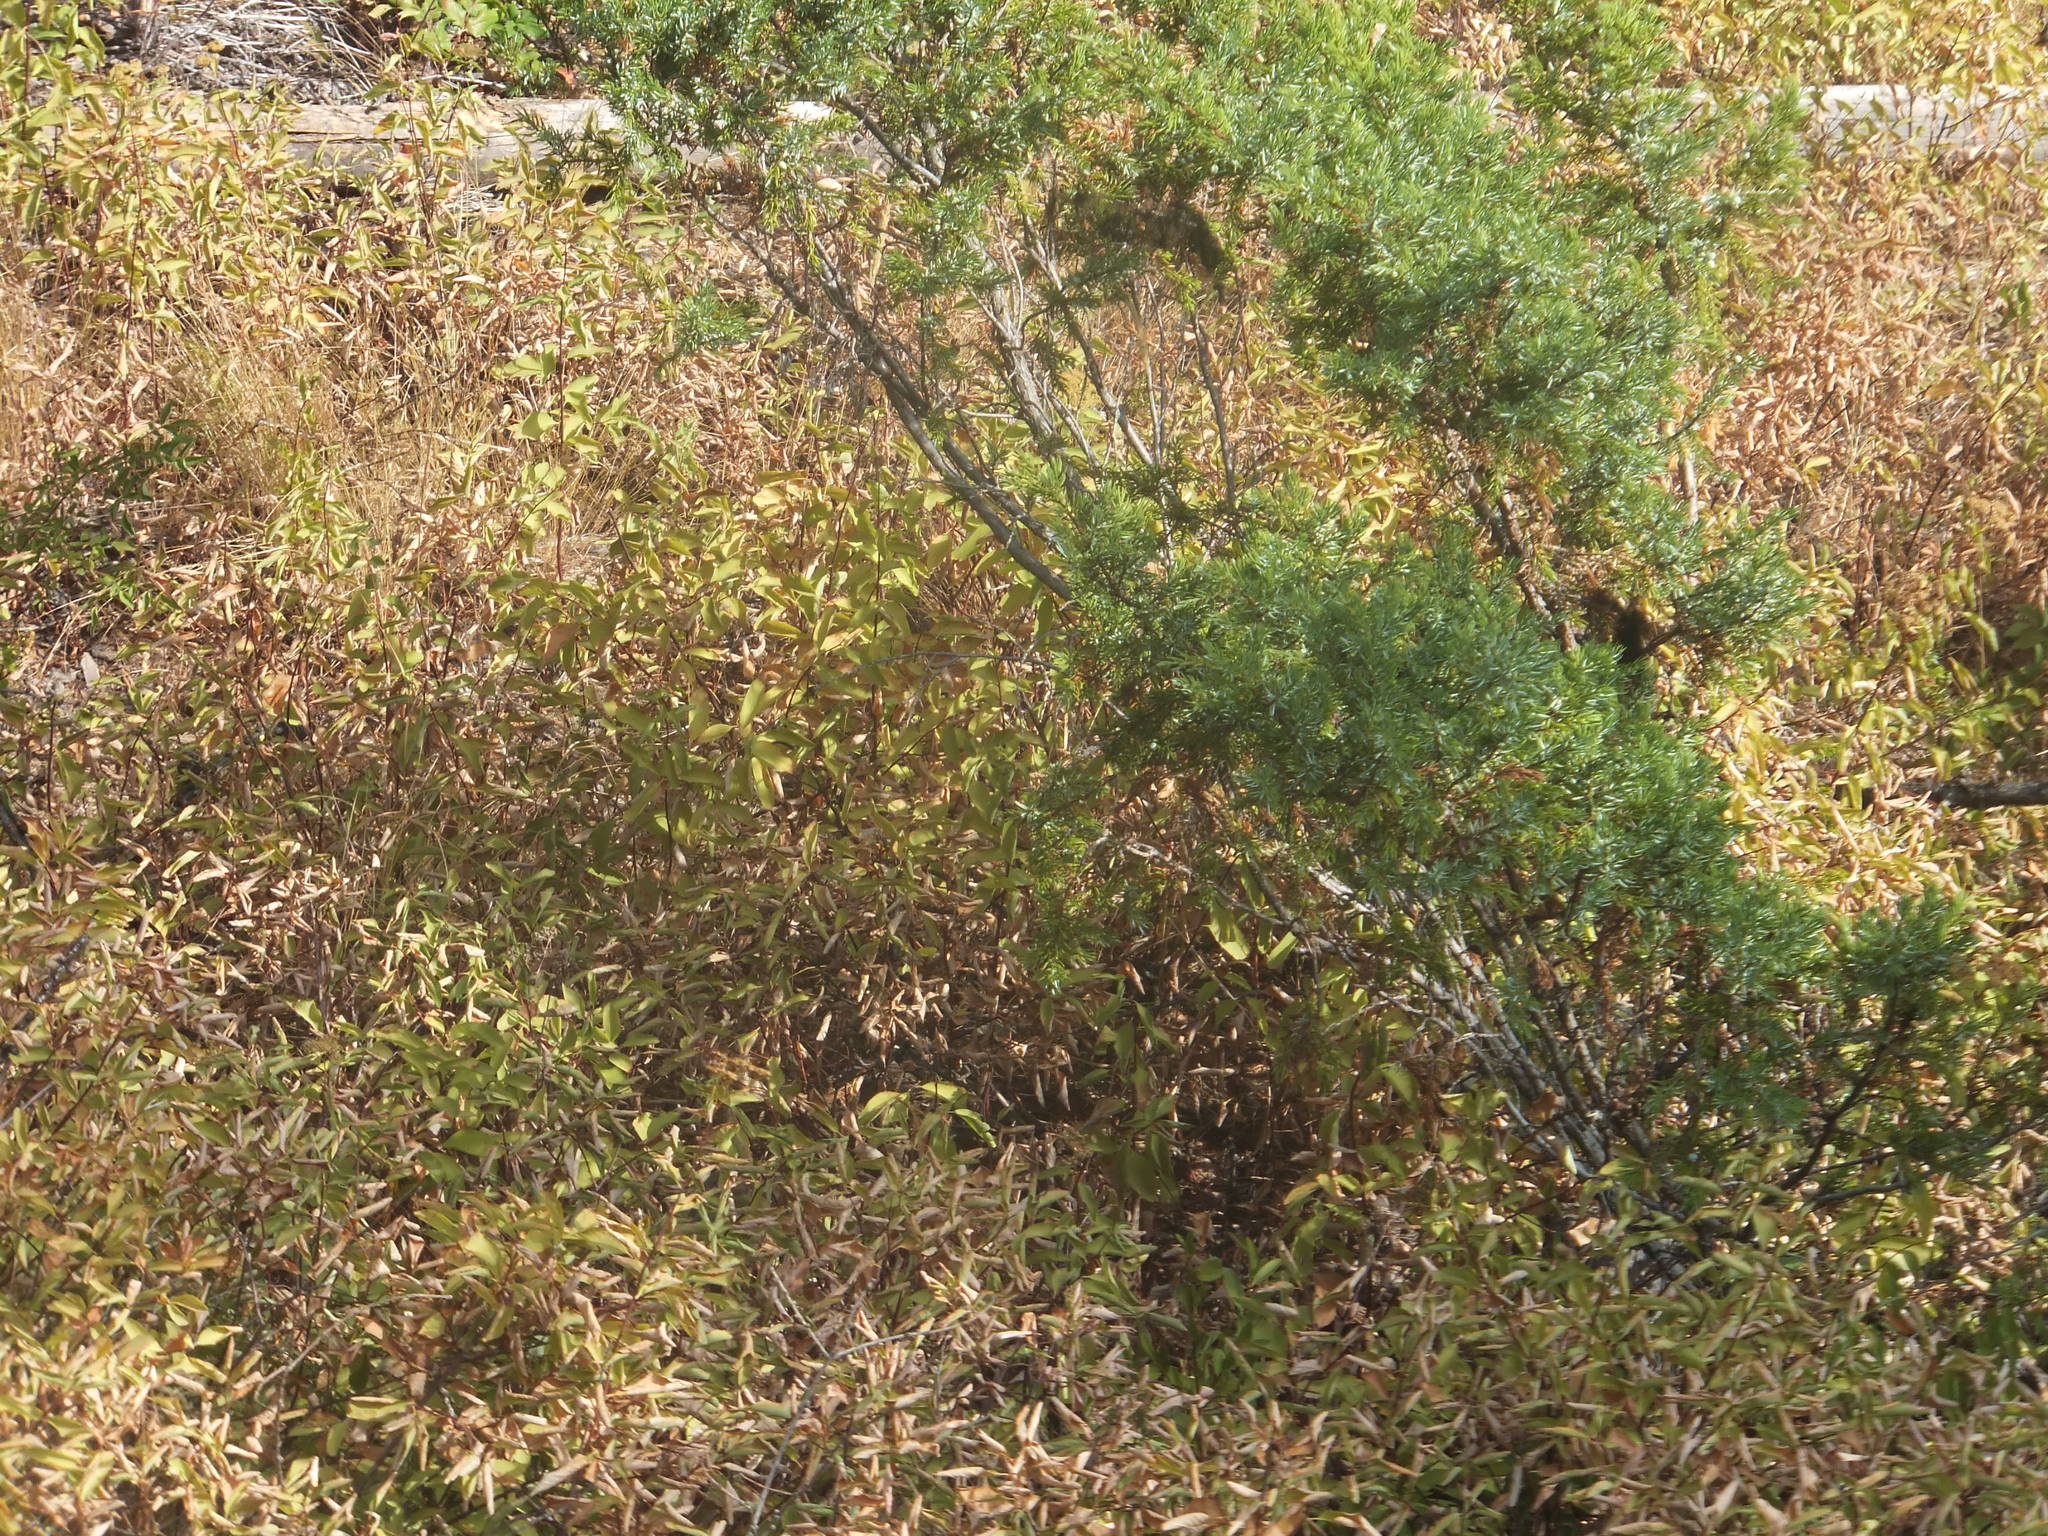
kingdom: Plantae
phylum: Tracheophyta
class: Pinopsida
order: Pinales
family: Cupressaceae
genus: Juniperus
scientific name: Juniperus communis
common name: Common juniper
